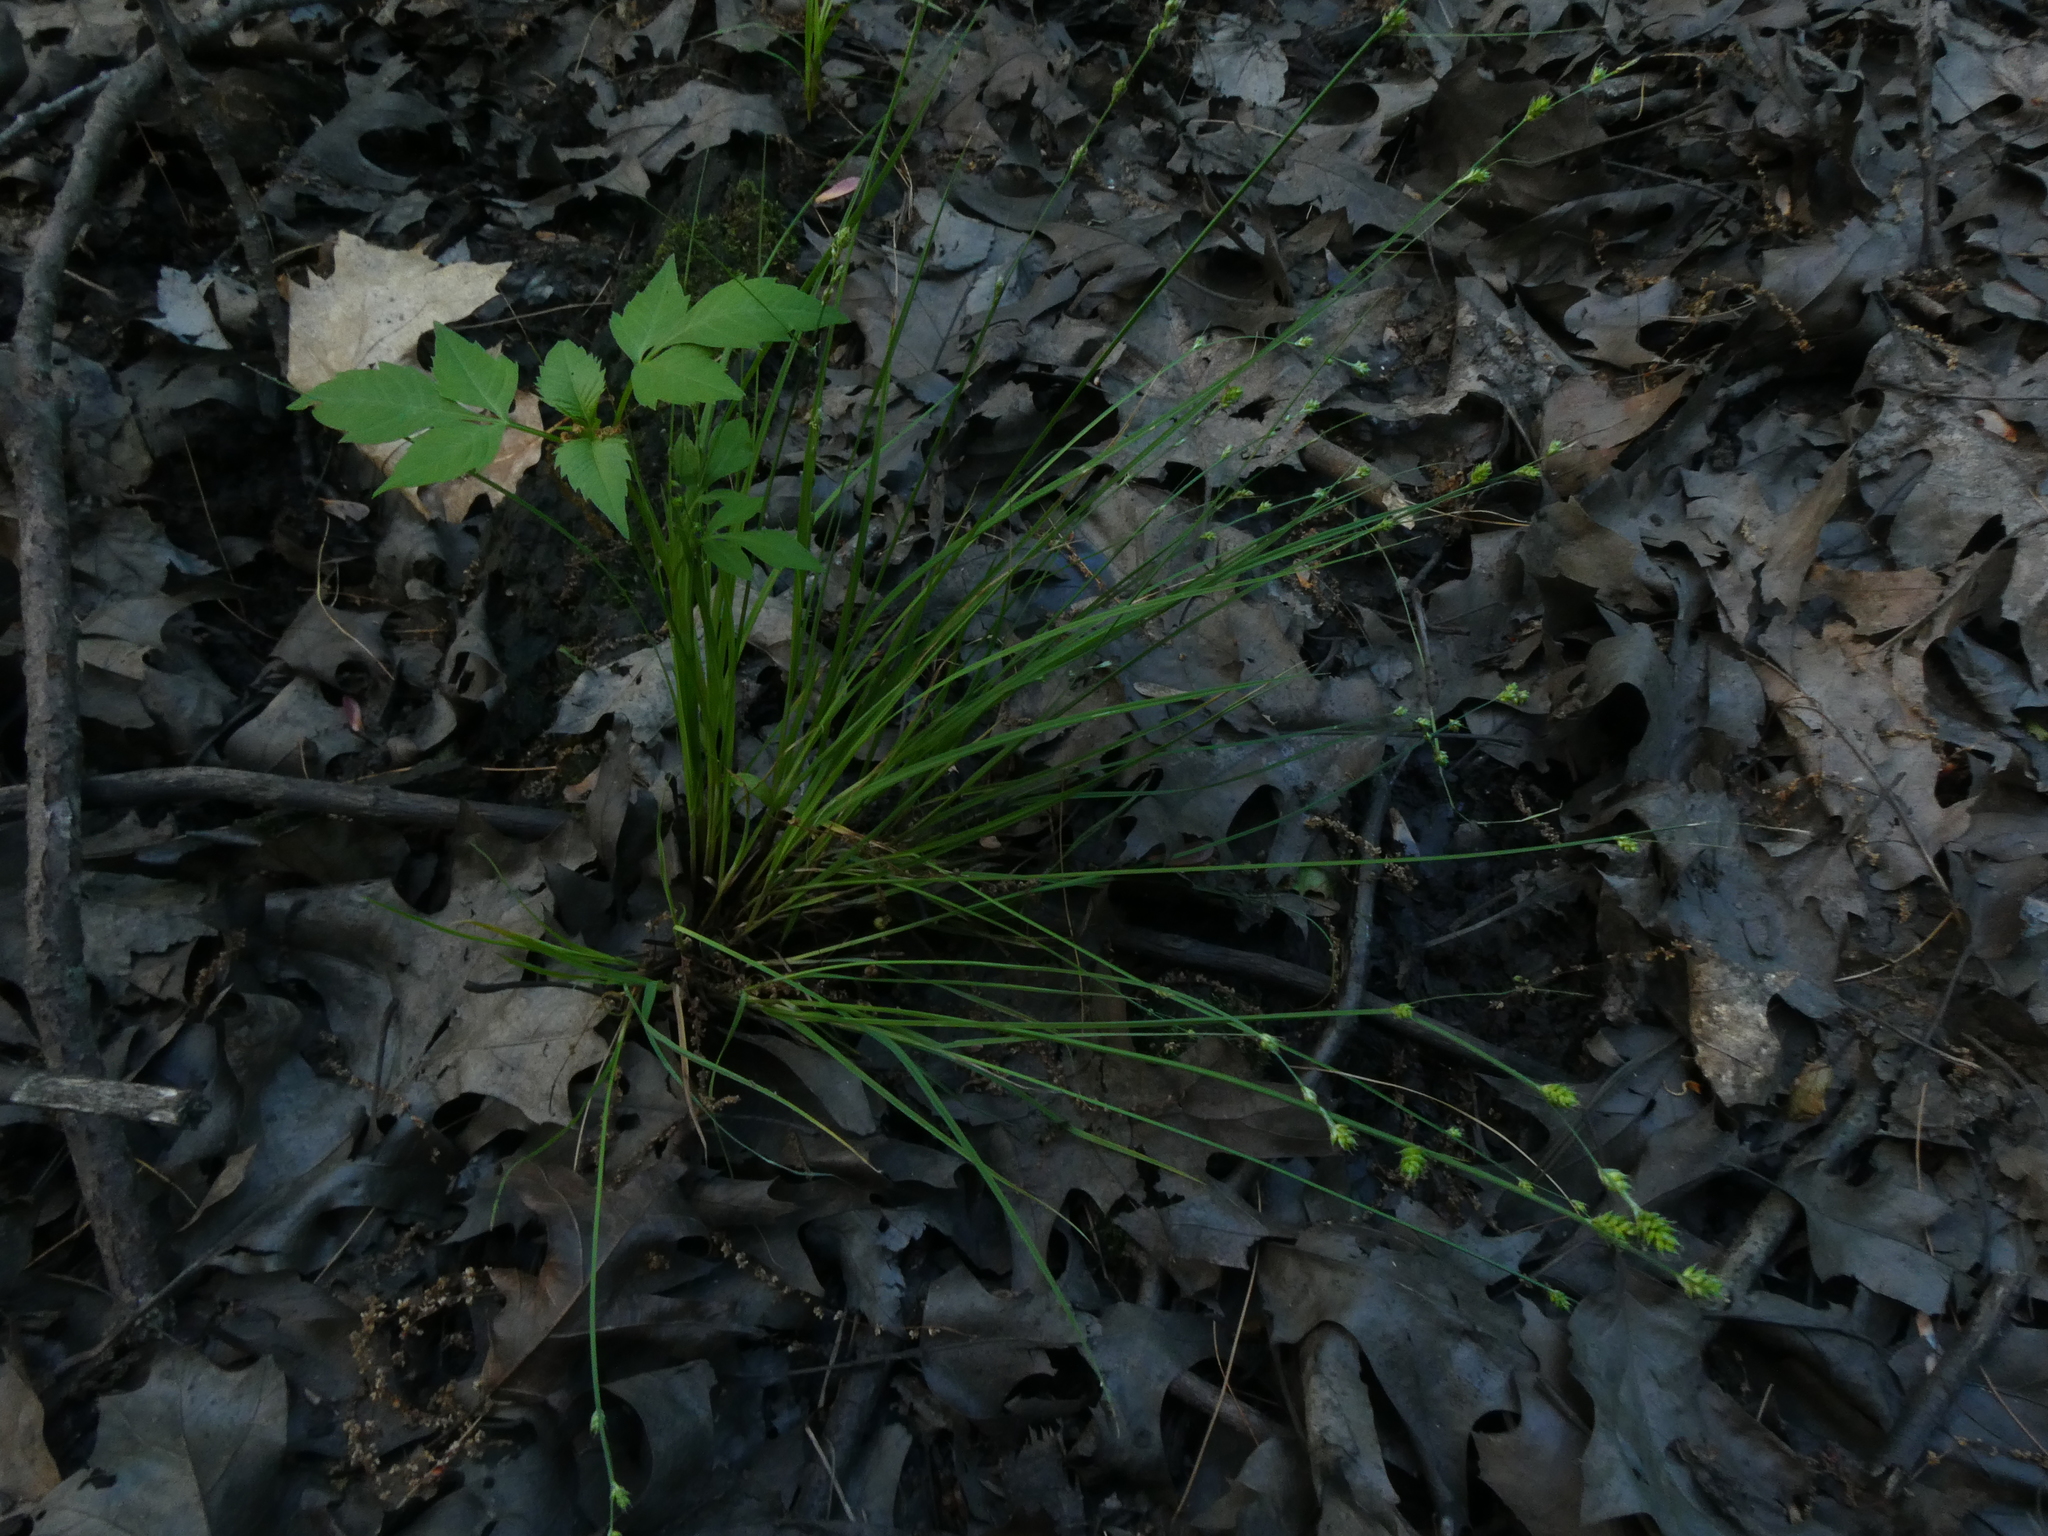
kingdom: Plantae
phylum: Tracheophyta
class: Liliopsida
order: Poales
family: Cyperaceae
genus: Carex
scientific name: Carex canescens
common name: White sedge
